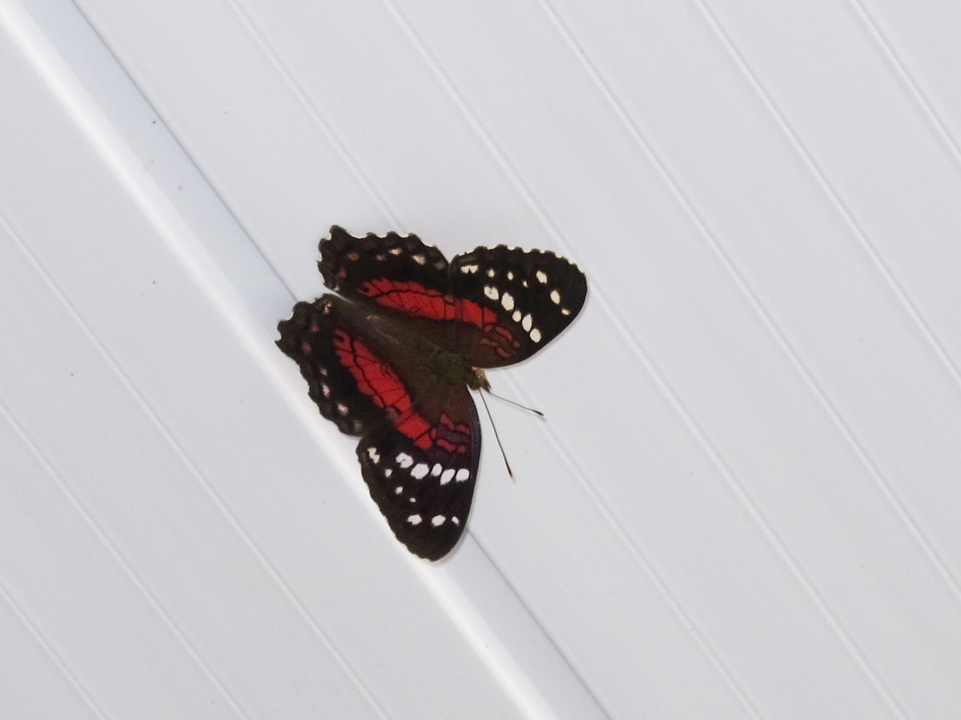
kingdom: Animalia
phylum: Arthropoda
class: Insecta
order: Lepidoptera
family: Nymphalidae
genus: Anartia
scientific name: Anartia amathea
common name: Red peacock
